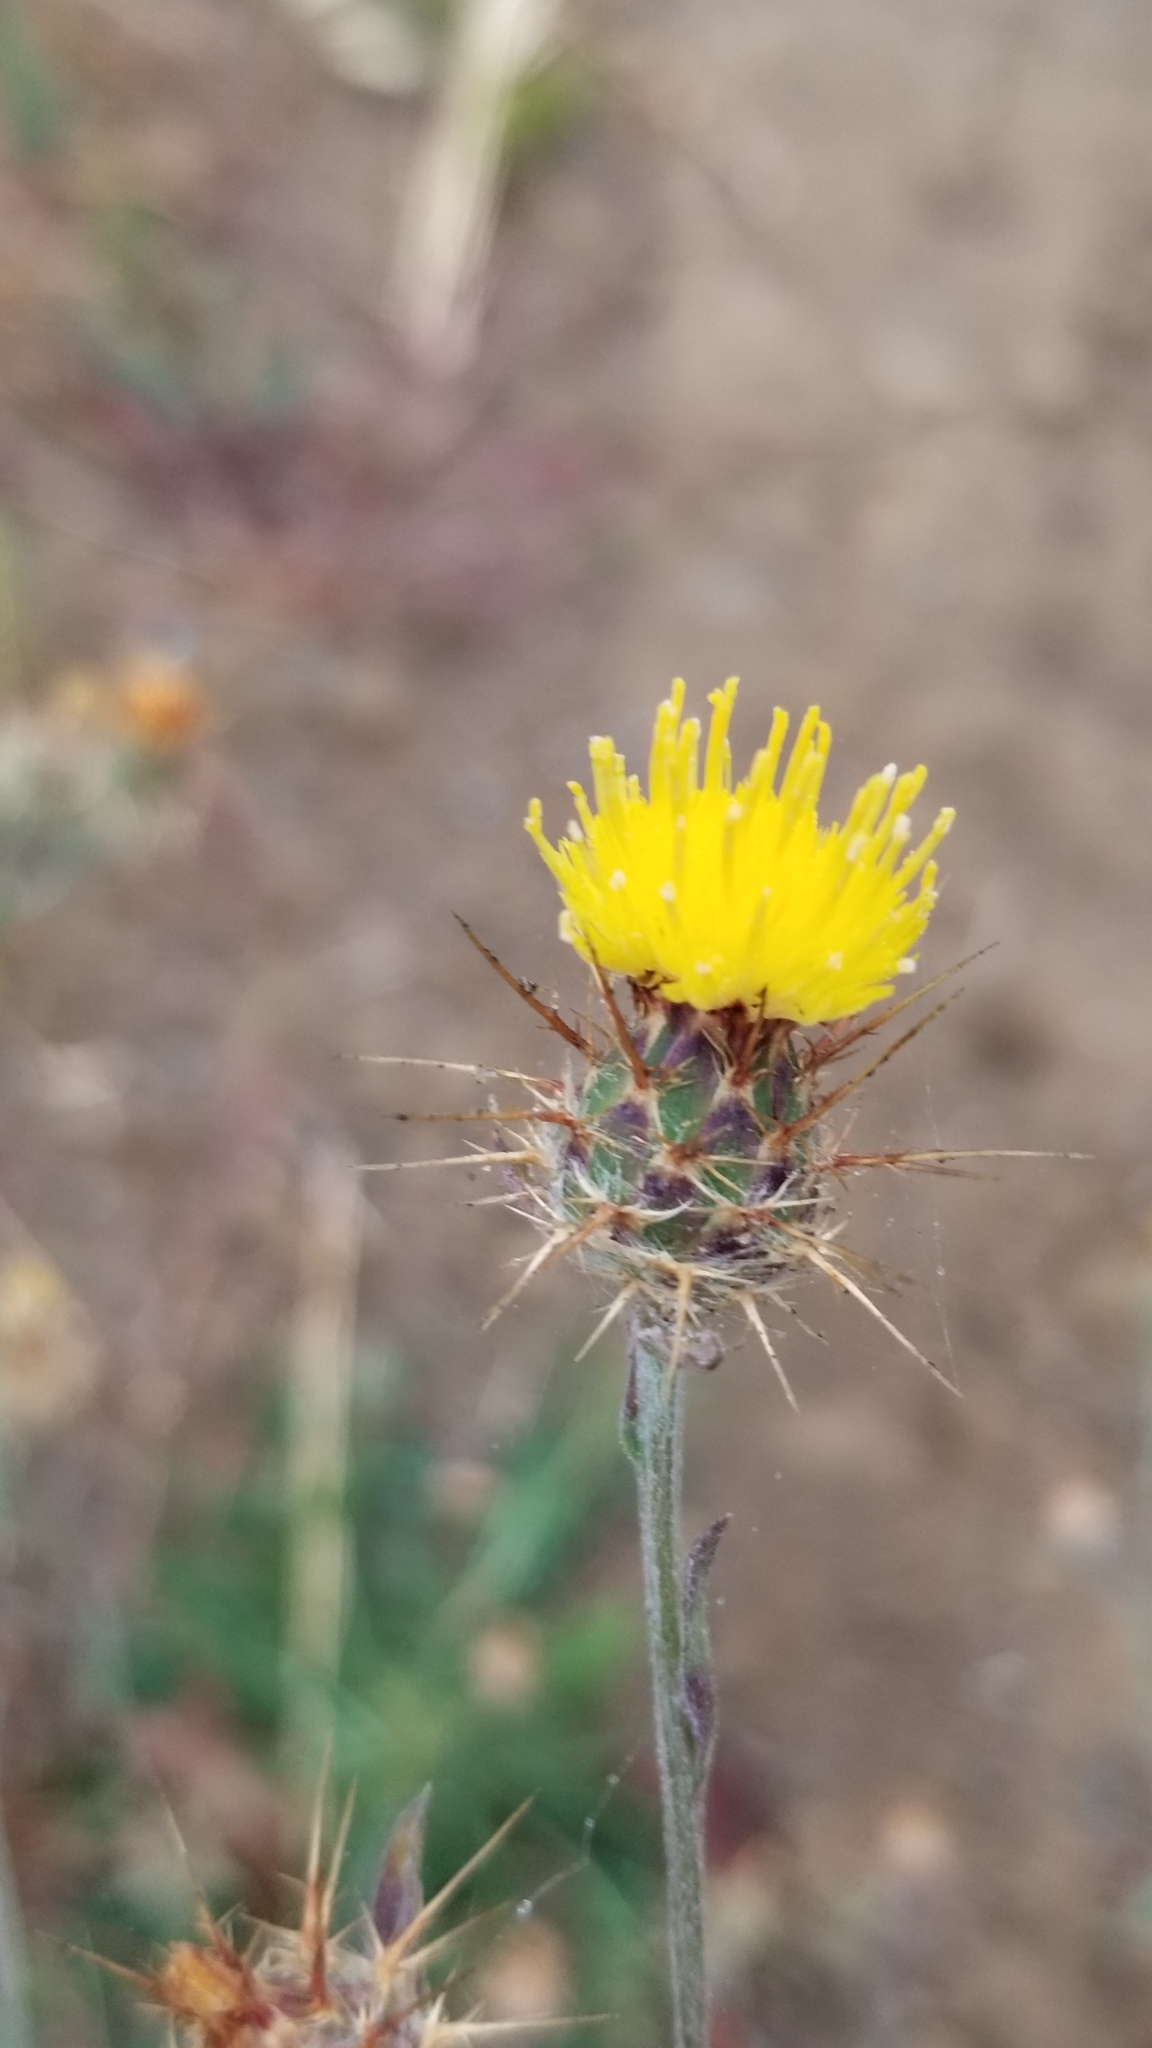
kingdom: Plantae
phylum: Tracheophyta
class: Magnoliopsida
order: Asterales
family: Asteraceae
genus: Centaurea
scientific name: Centaurea melitensis
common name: Maltese star-thistle
